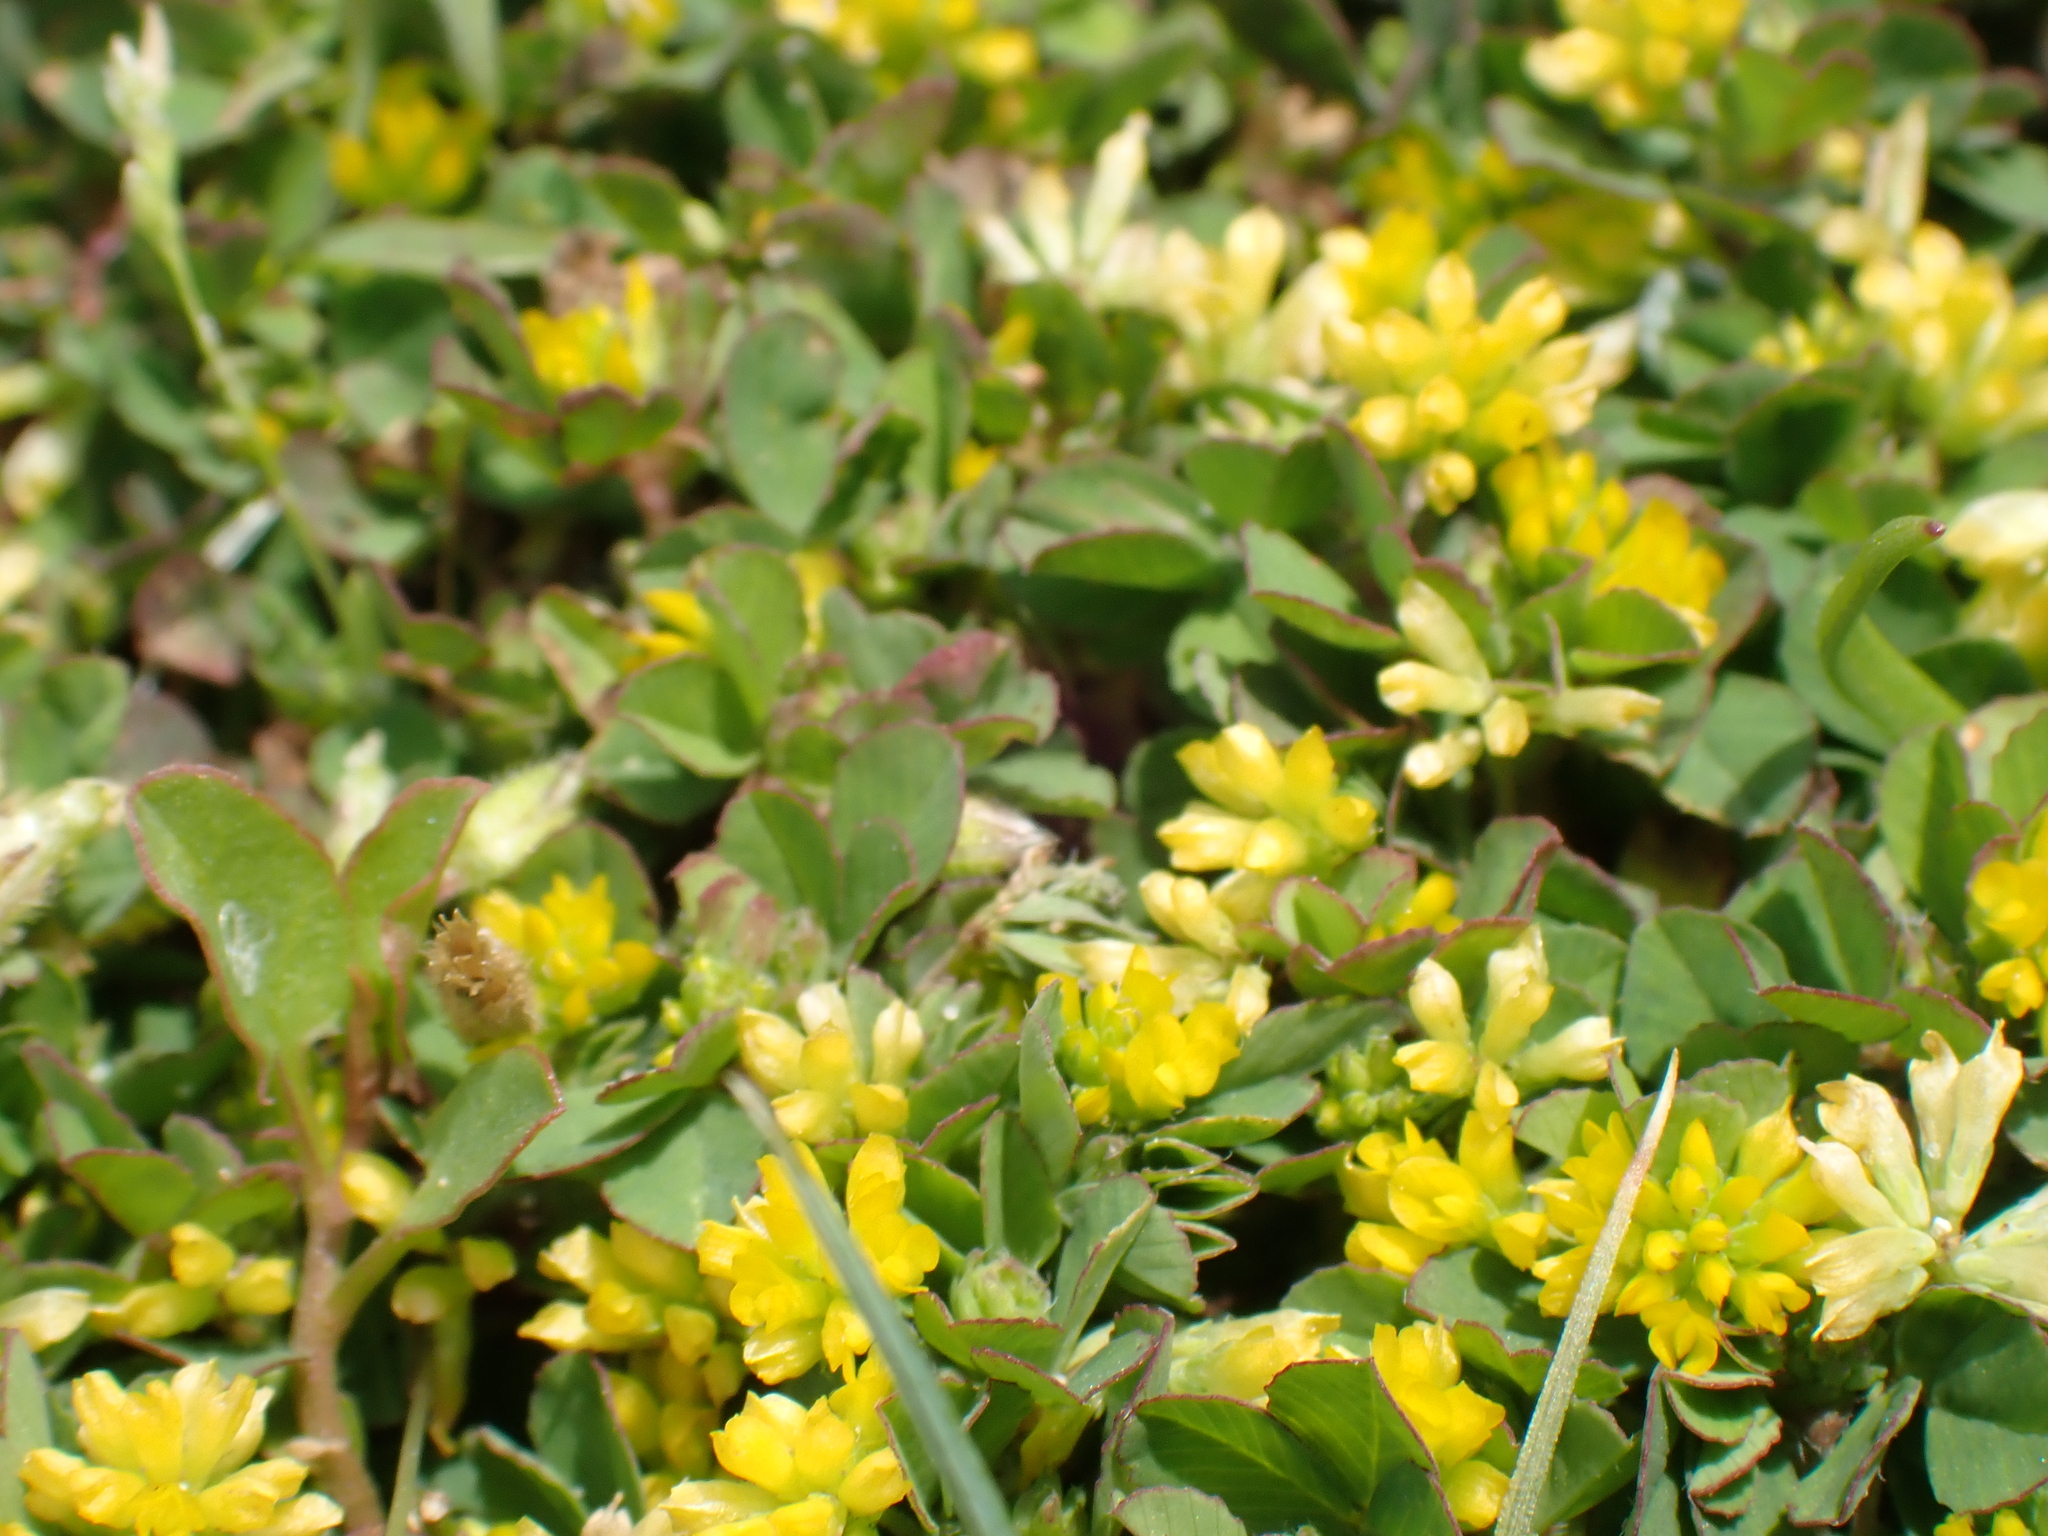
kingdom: Plantae
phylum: Tracheophyta
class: Magnoliopsida
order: Fabales
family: Fabaceae
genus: Trifolium
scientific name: Trifolium dubium
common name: Suckling clover
